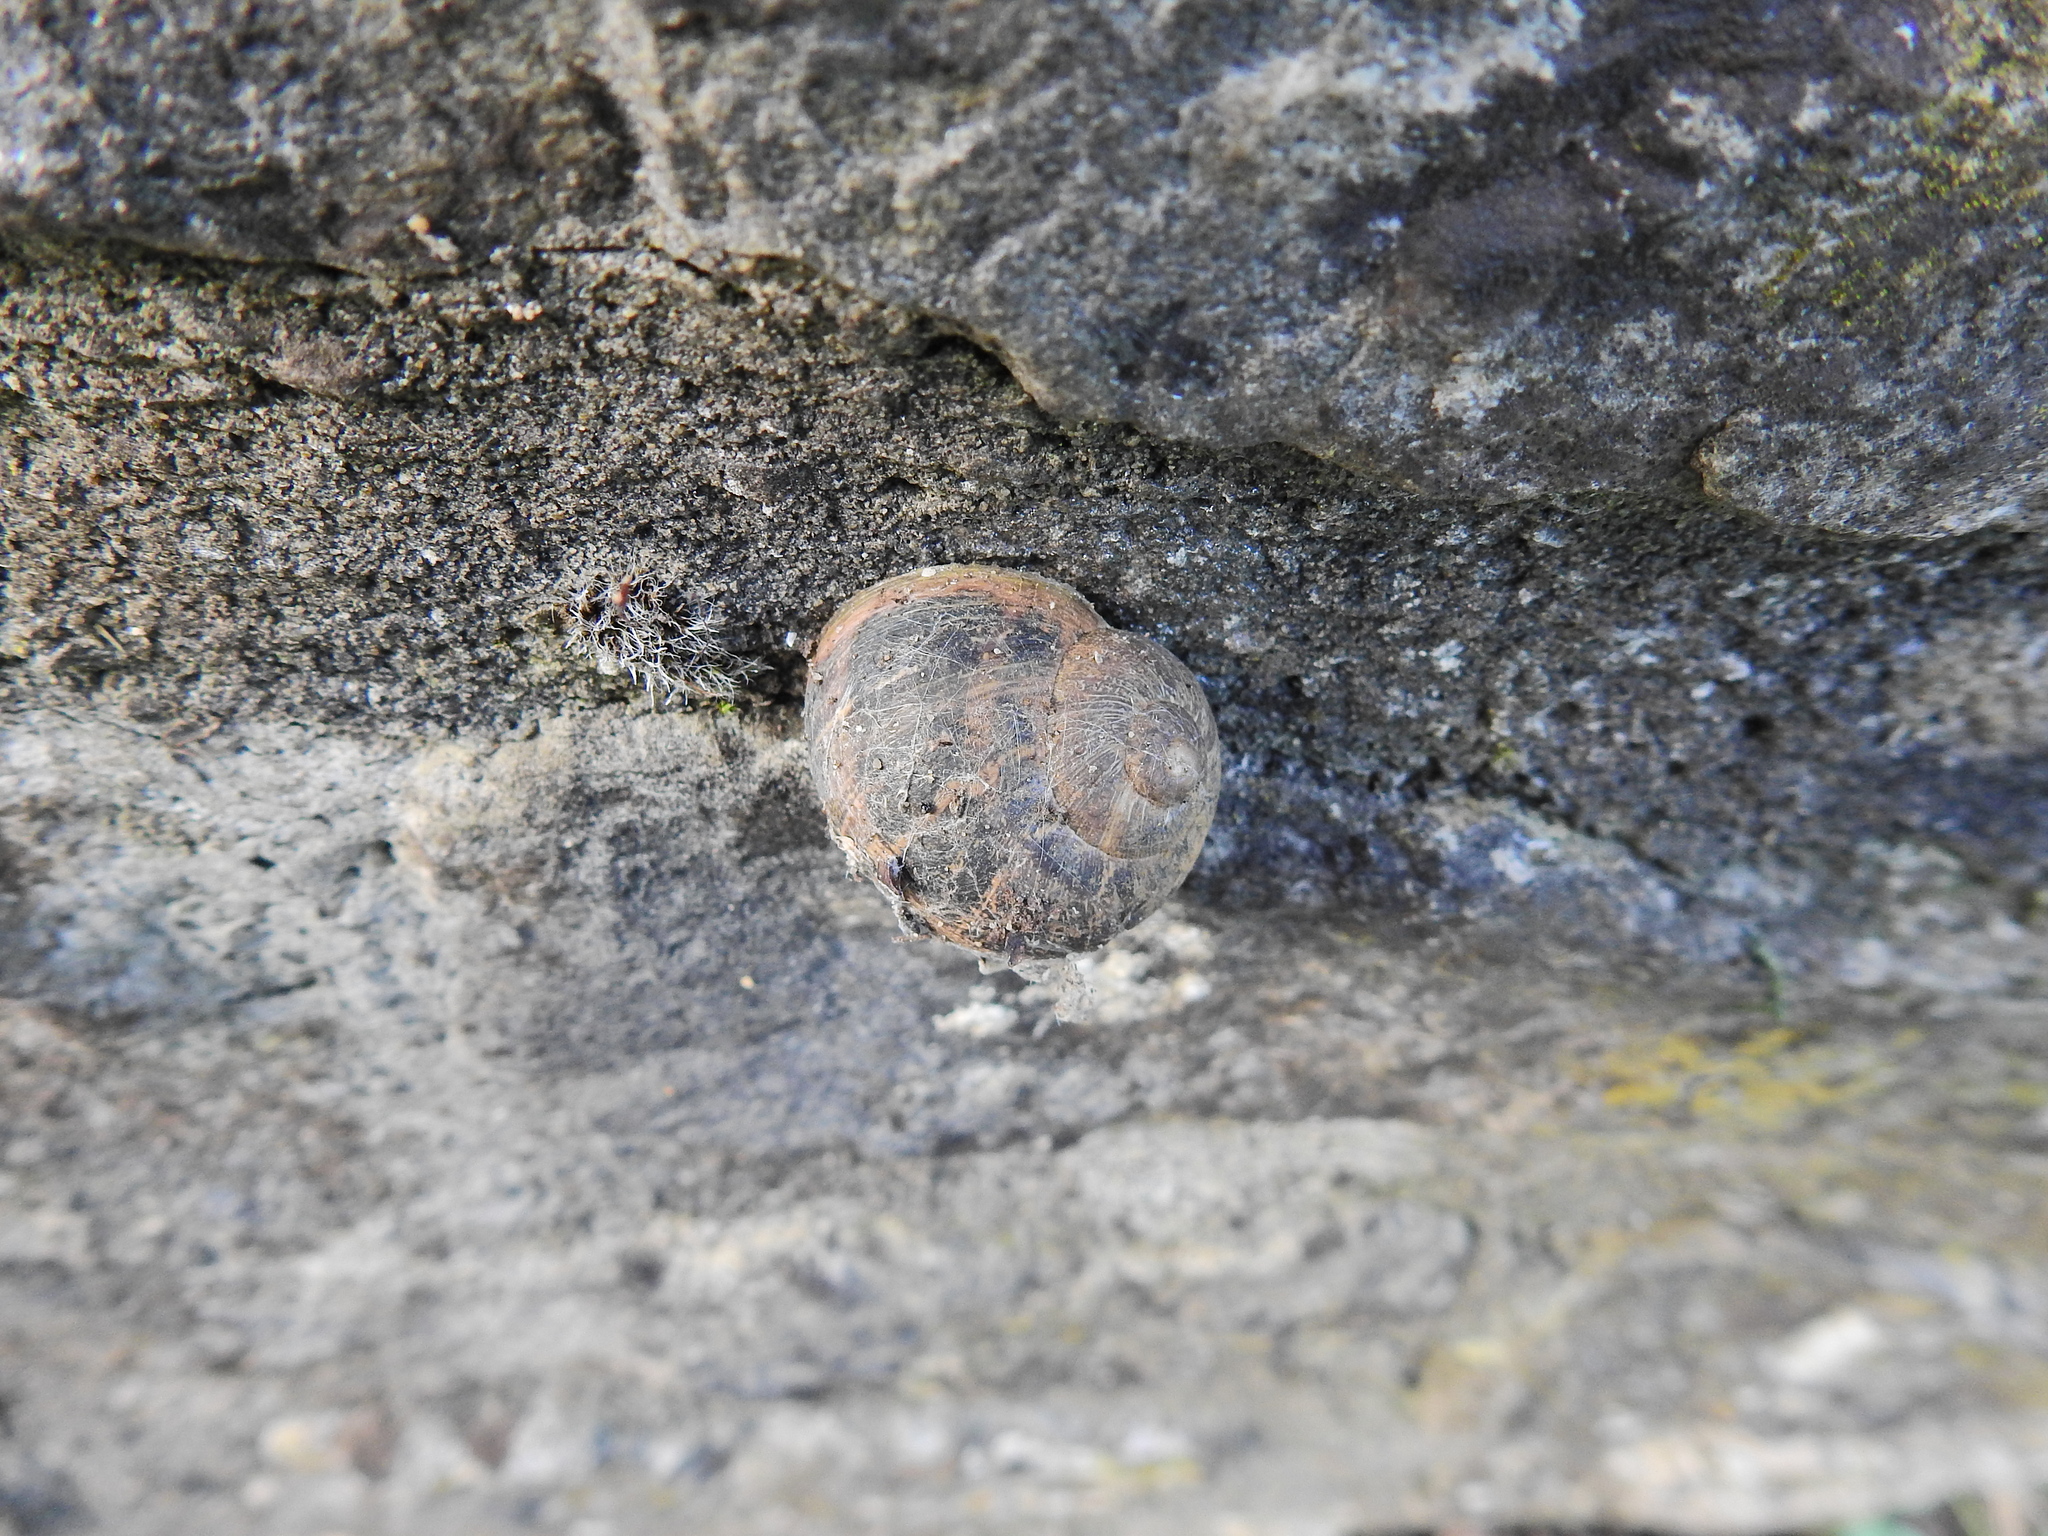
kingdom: Animalia
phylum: Mollusca
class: Gastropoda
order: Stylommatophora
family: Helicidae
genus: Cornu
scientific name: Cornu aspersum
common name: Brown garden snail
